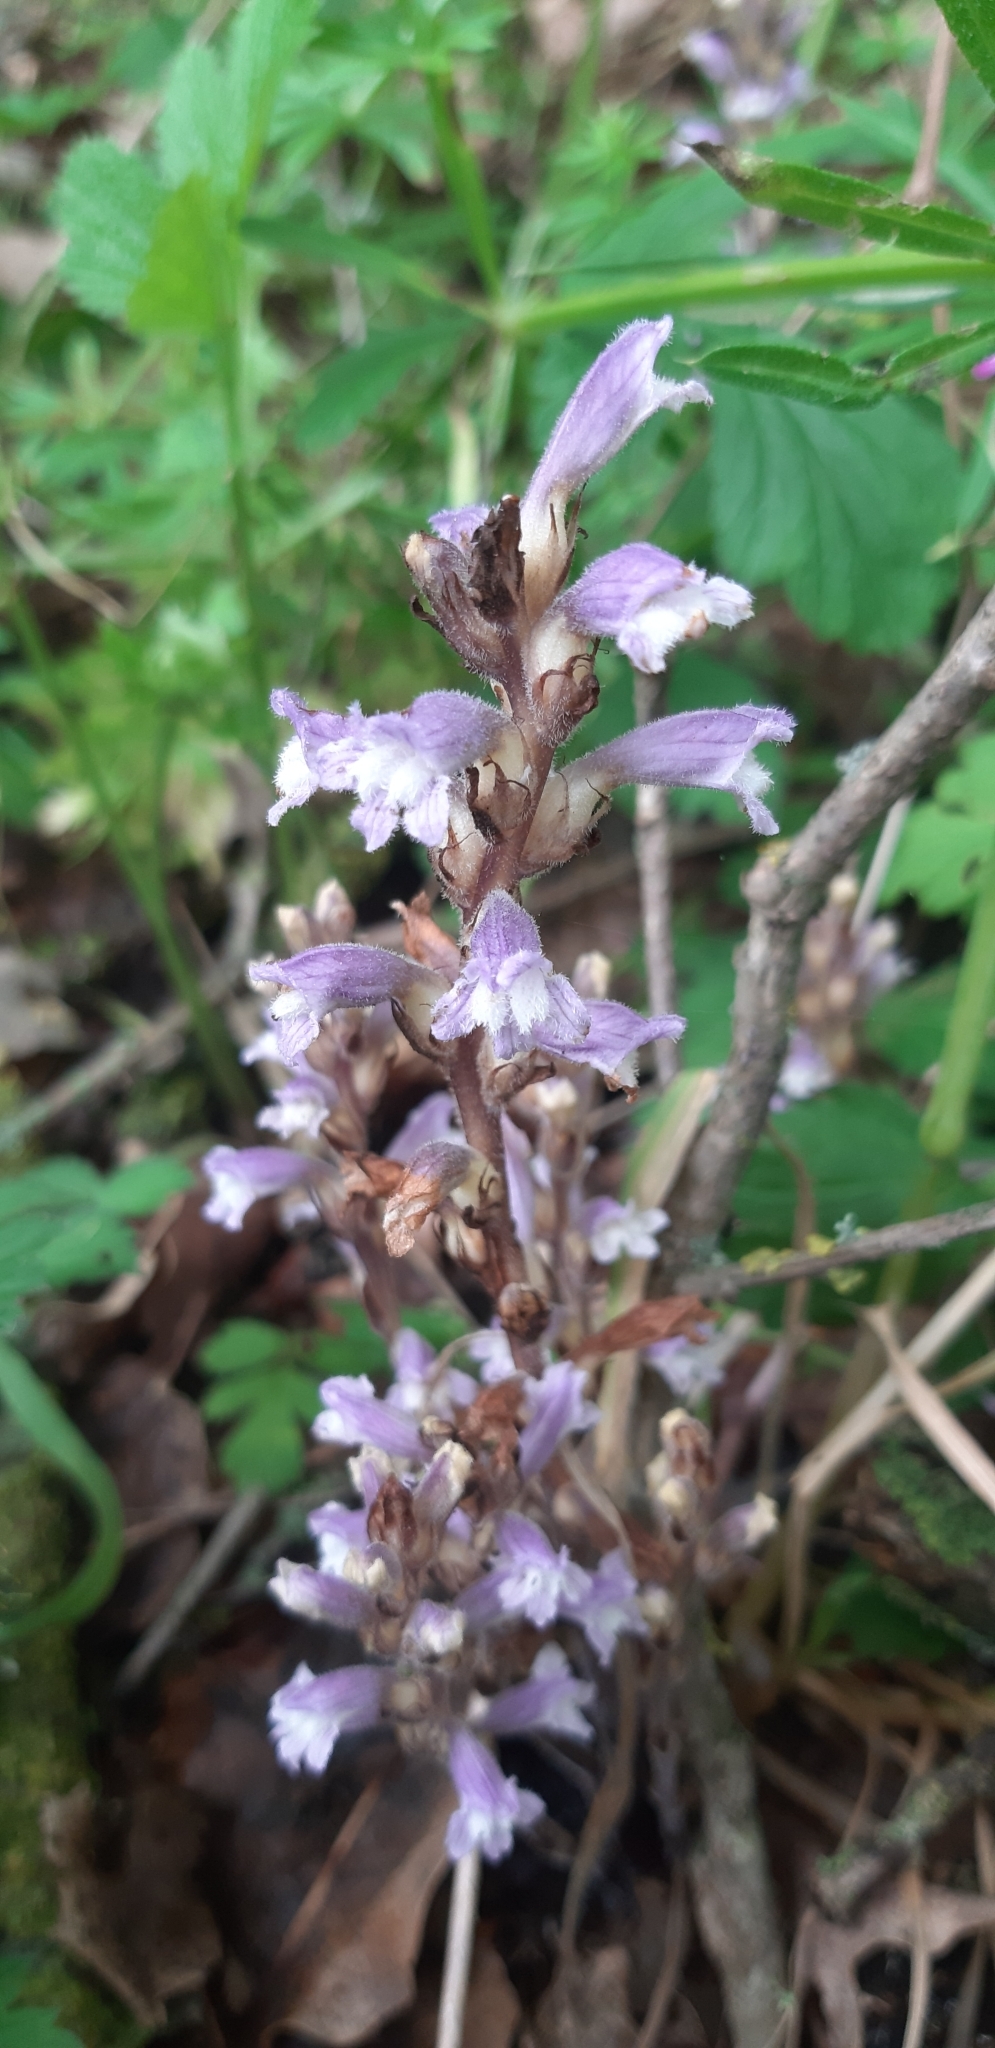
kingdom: Plantae
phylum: Tracheophyta
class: Magnoliopsida
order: Lamiales
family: Orobanchaceae
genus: Phelipanche
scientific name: Phelipanche mutelii
